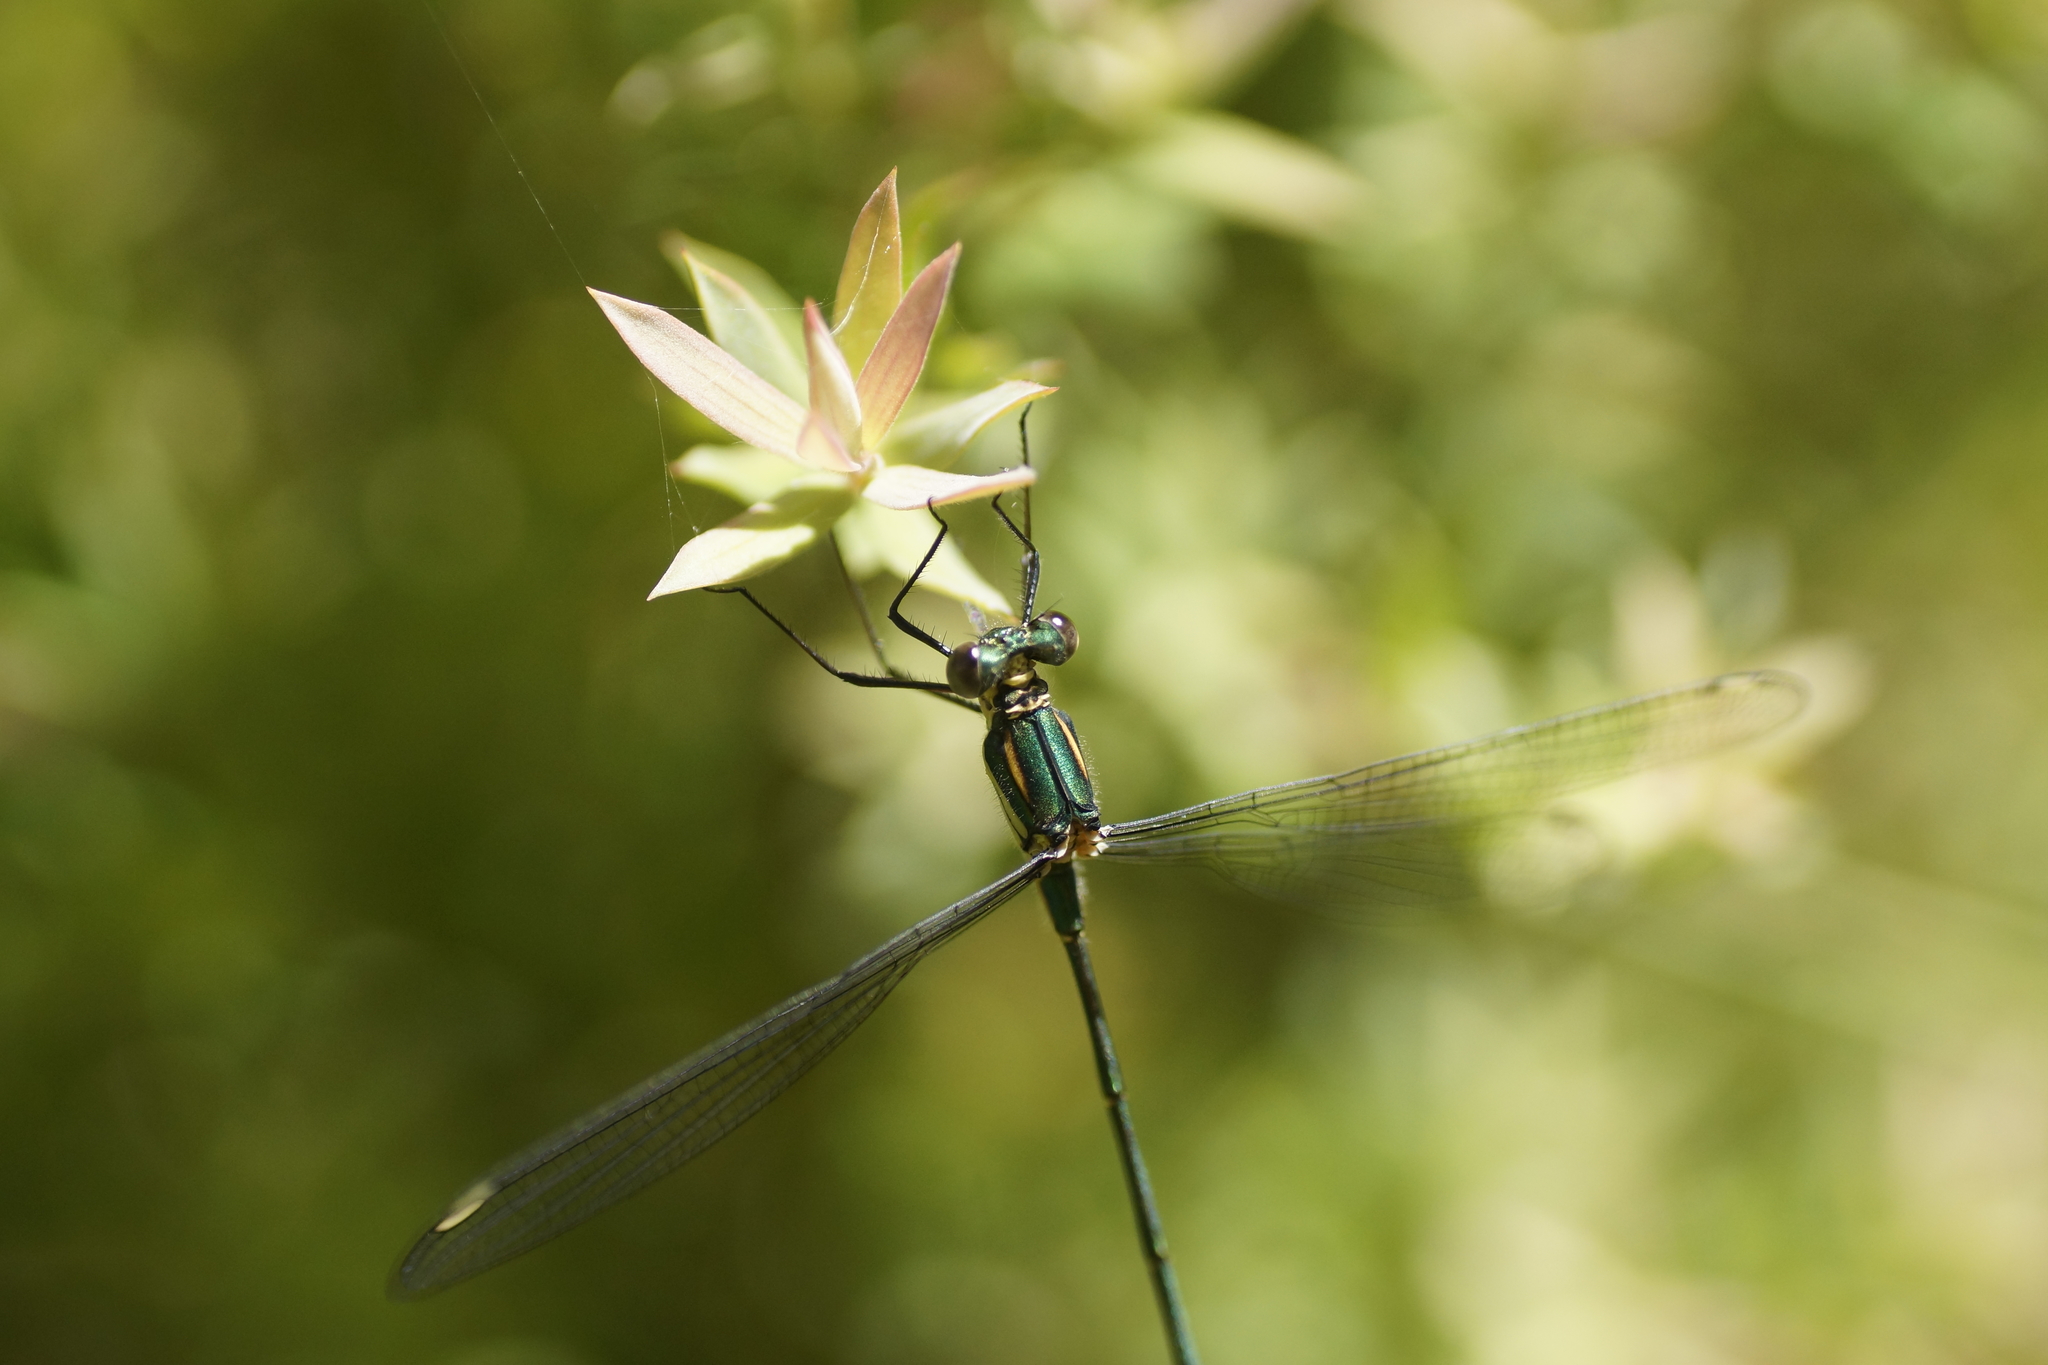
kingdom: Animalia
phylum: Arthropoda
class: Insecta
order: Odonata
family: Synlestidae
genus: Synlestes
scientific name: Synlestes weyersii
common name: Bronze needle
